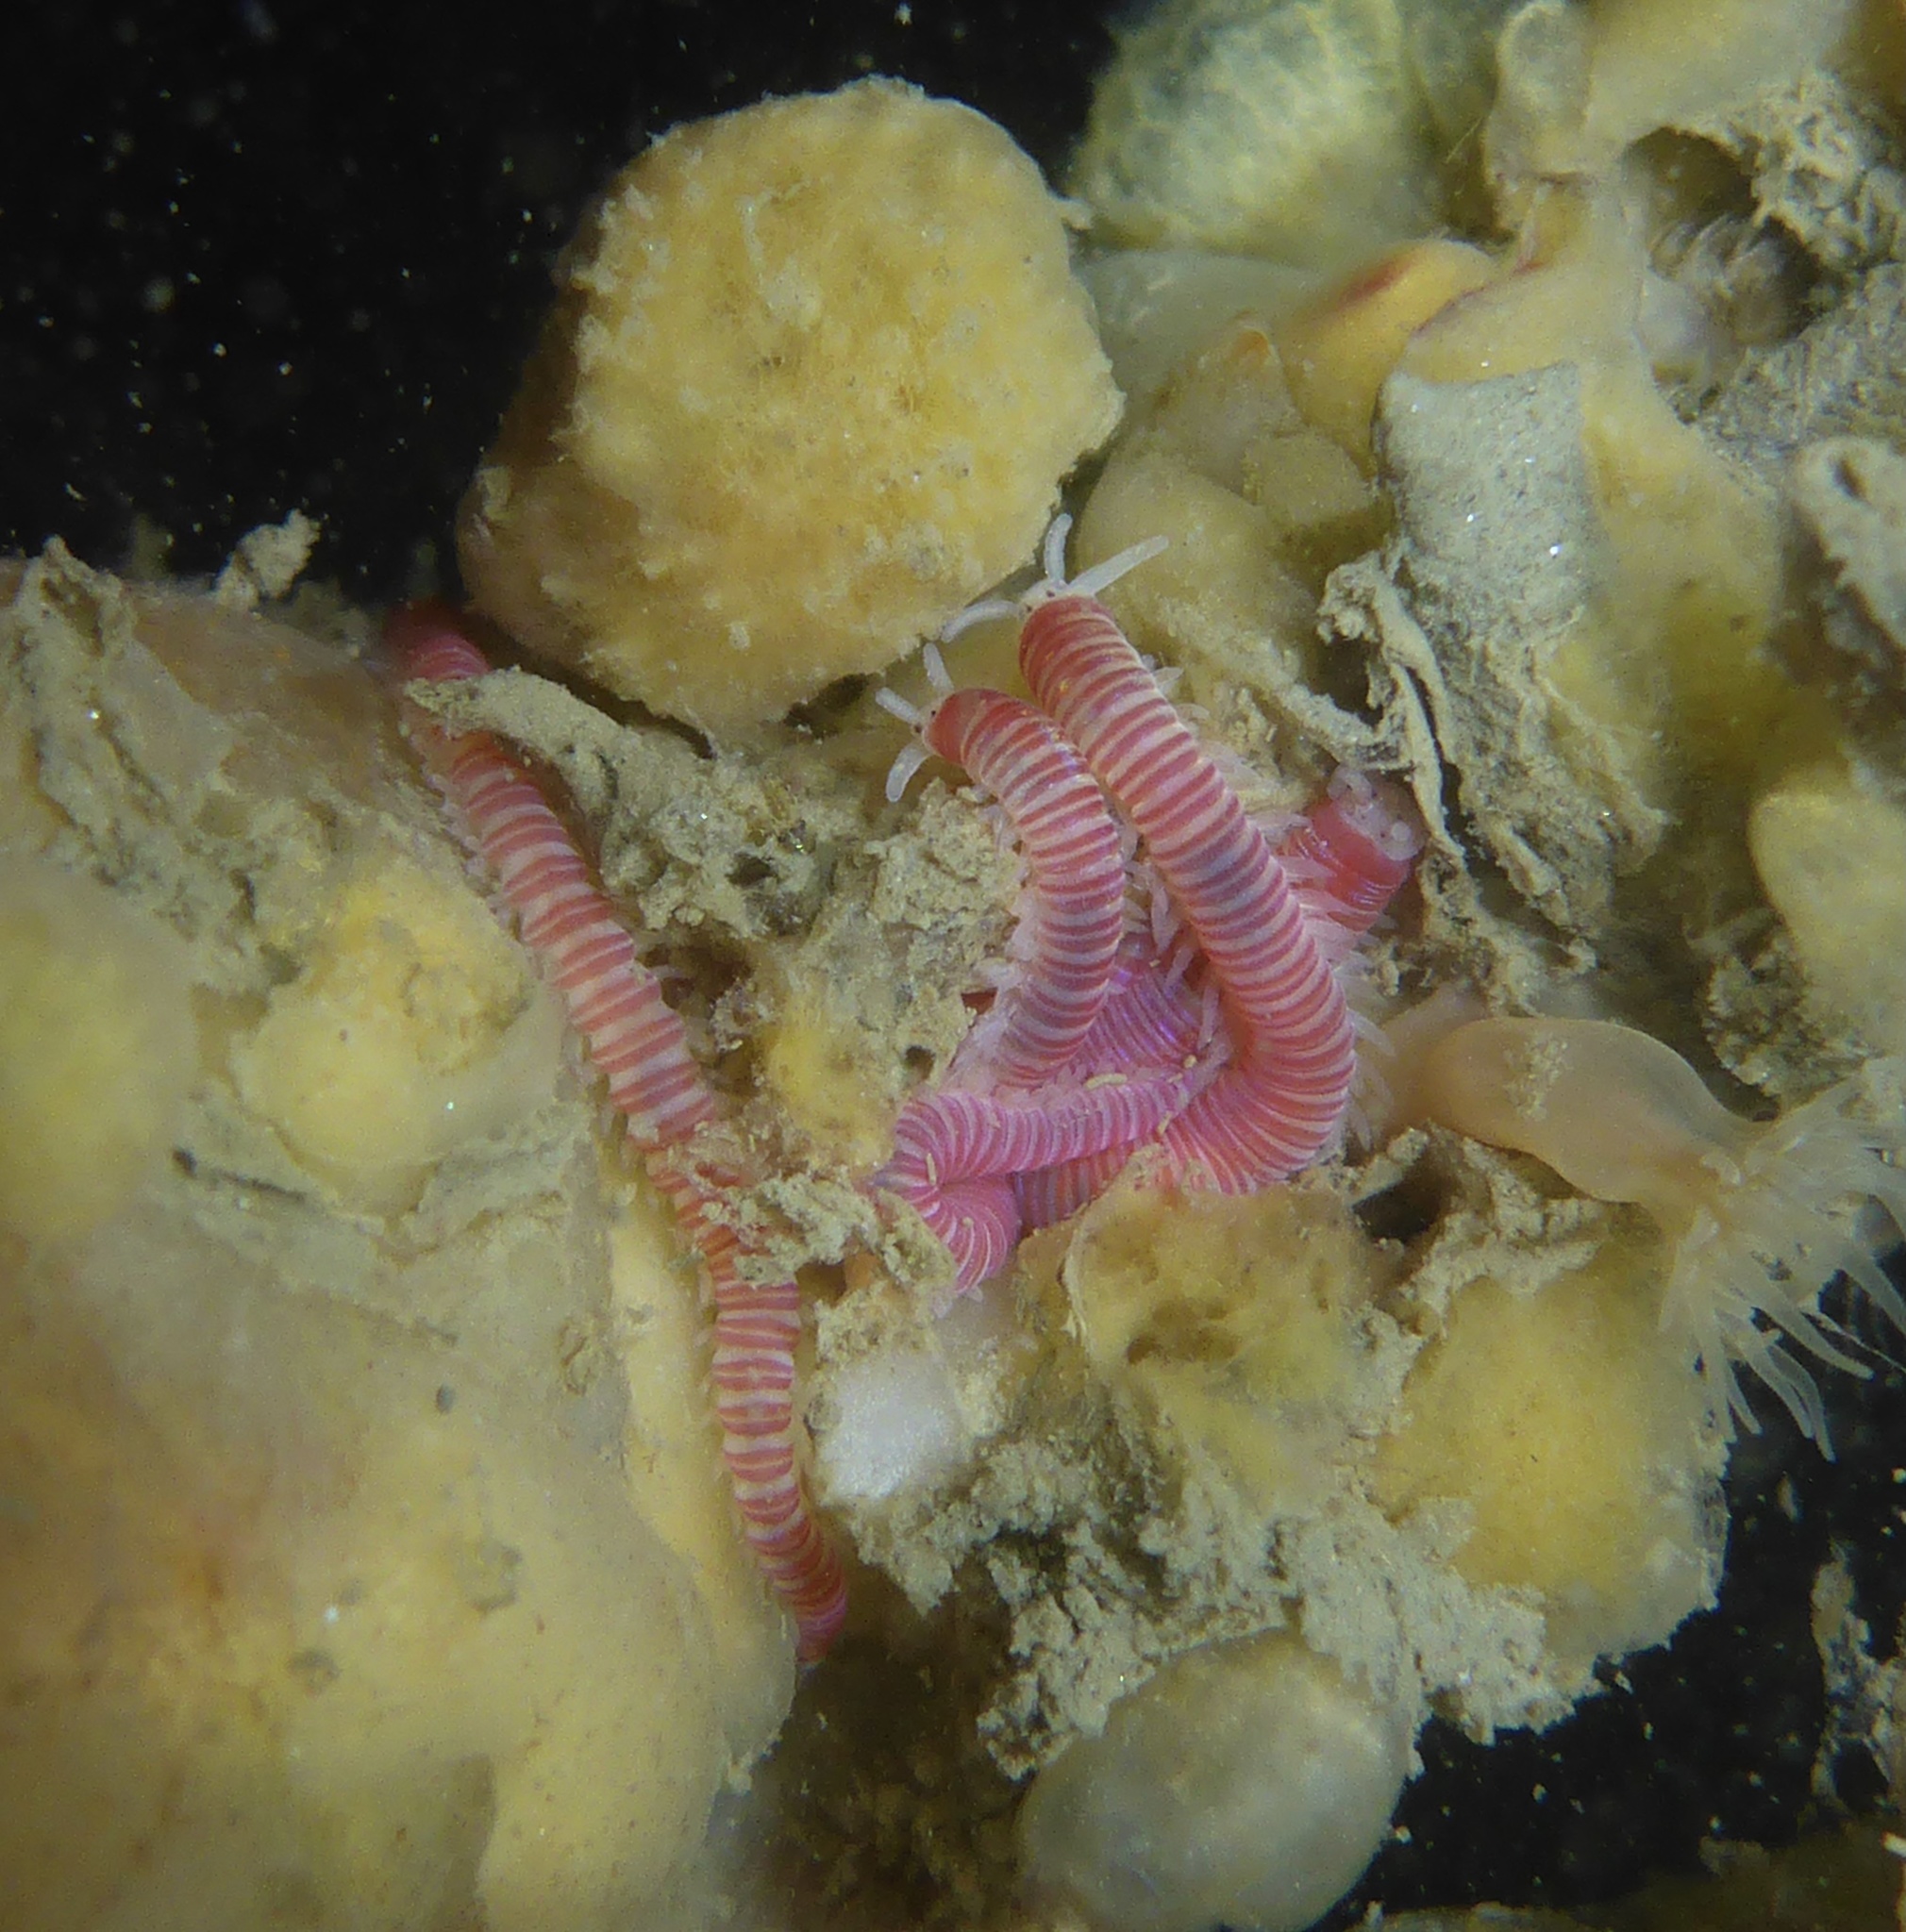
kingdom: Animalia
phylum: Annelida
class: Polychaeta
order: Eunicida
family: Dorvilleidae
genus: Dorvillea
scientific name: Dorvillea moniloceras
